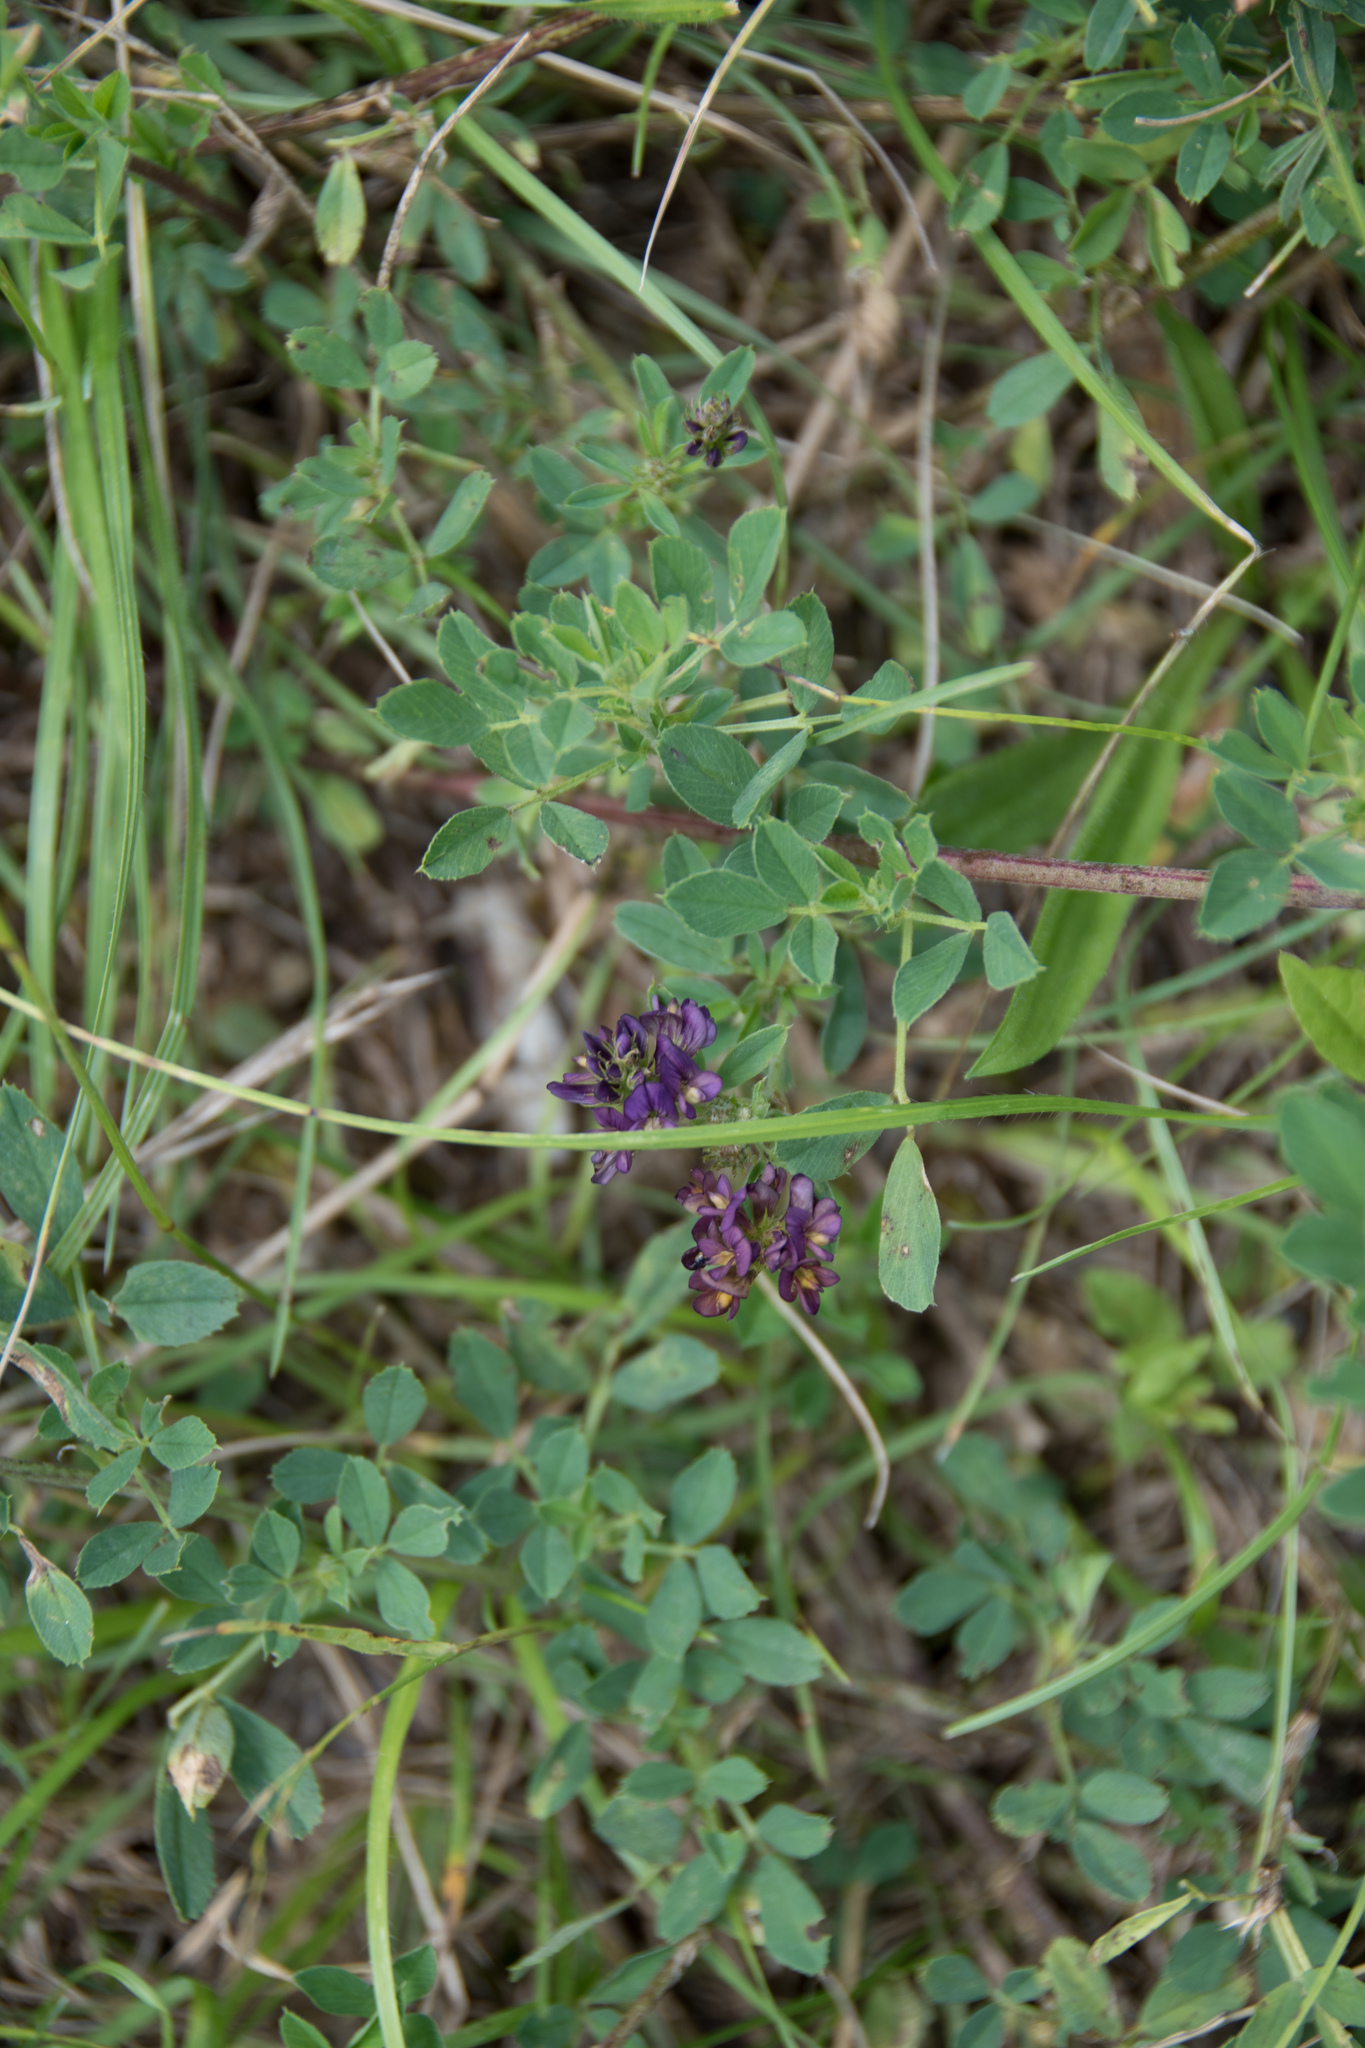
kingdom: Plantae
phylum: Tracheophyta
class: Magnoliopsida
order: Fabales
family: Fabaceae
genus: Medicago
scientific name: Medicago varia
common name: Sand lucerne
